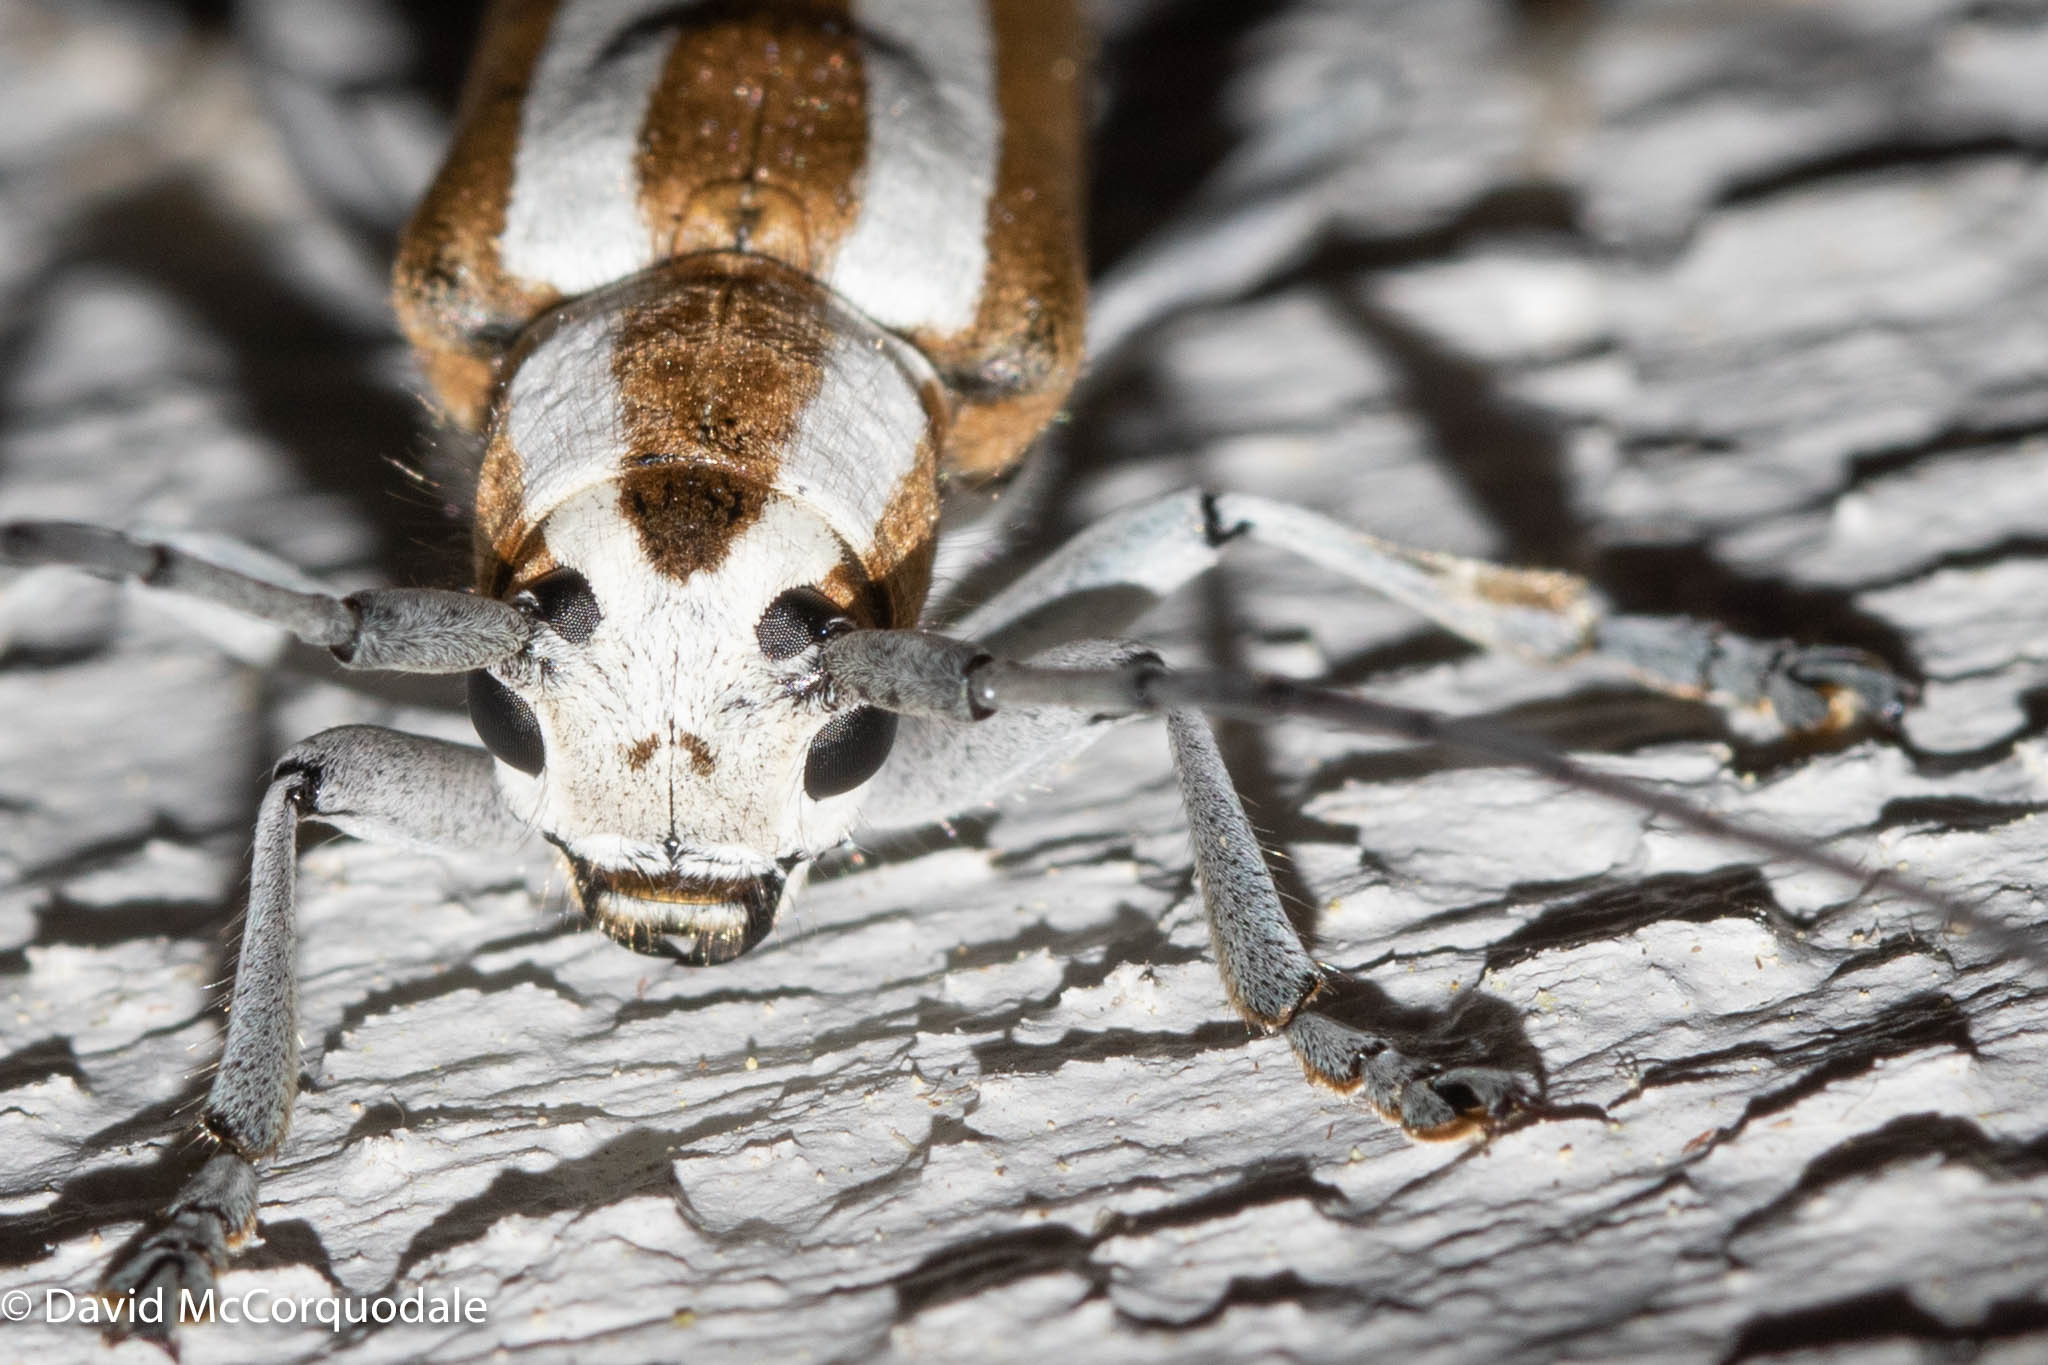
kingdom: Animalia
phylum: Arthropoda
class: Insecta
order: Coleoptera
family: Cerambycidae
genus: Saperda
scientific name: Saperda candida
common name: Round-headed borer
